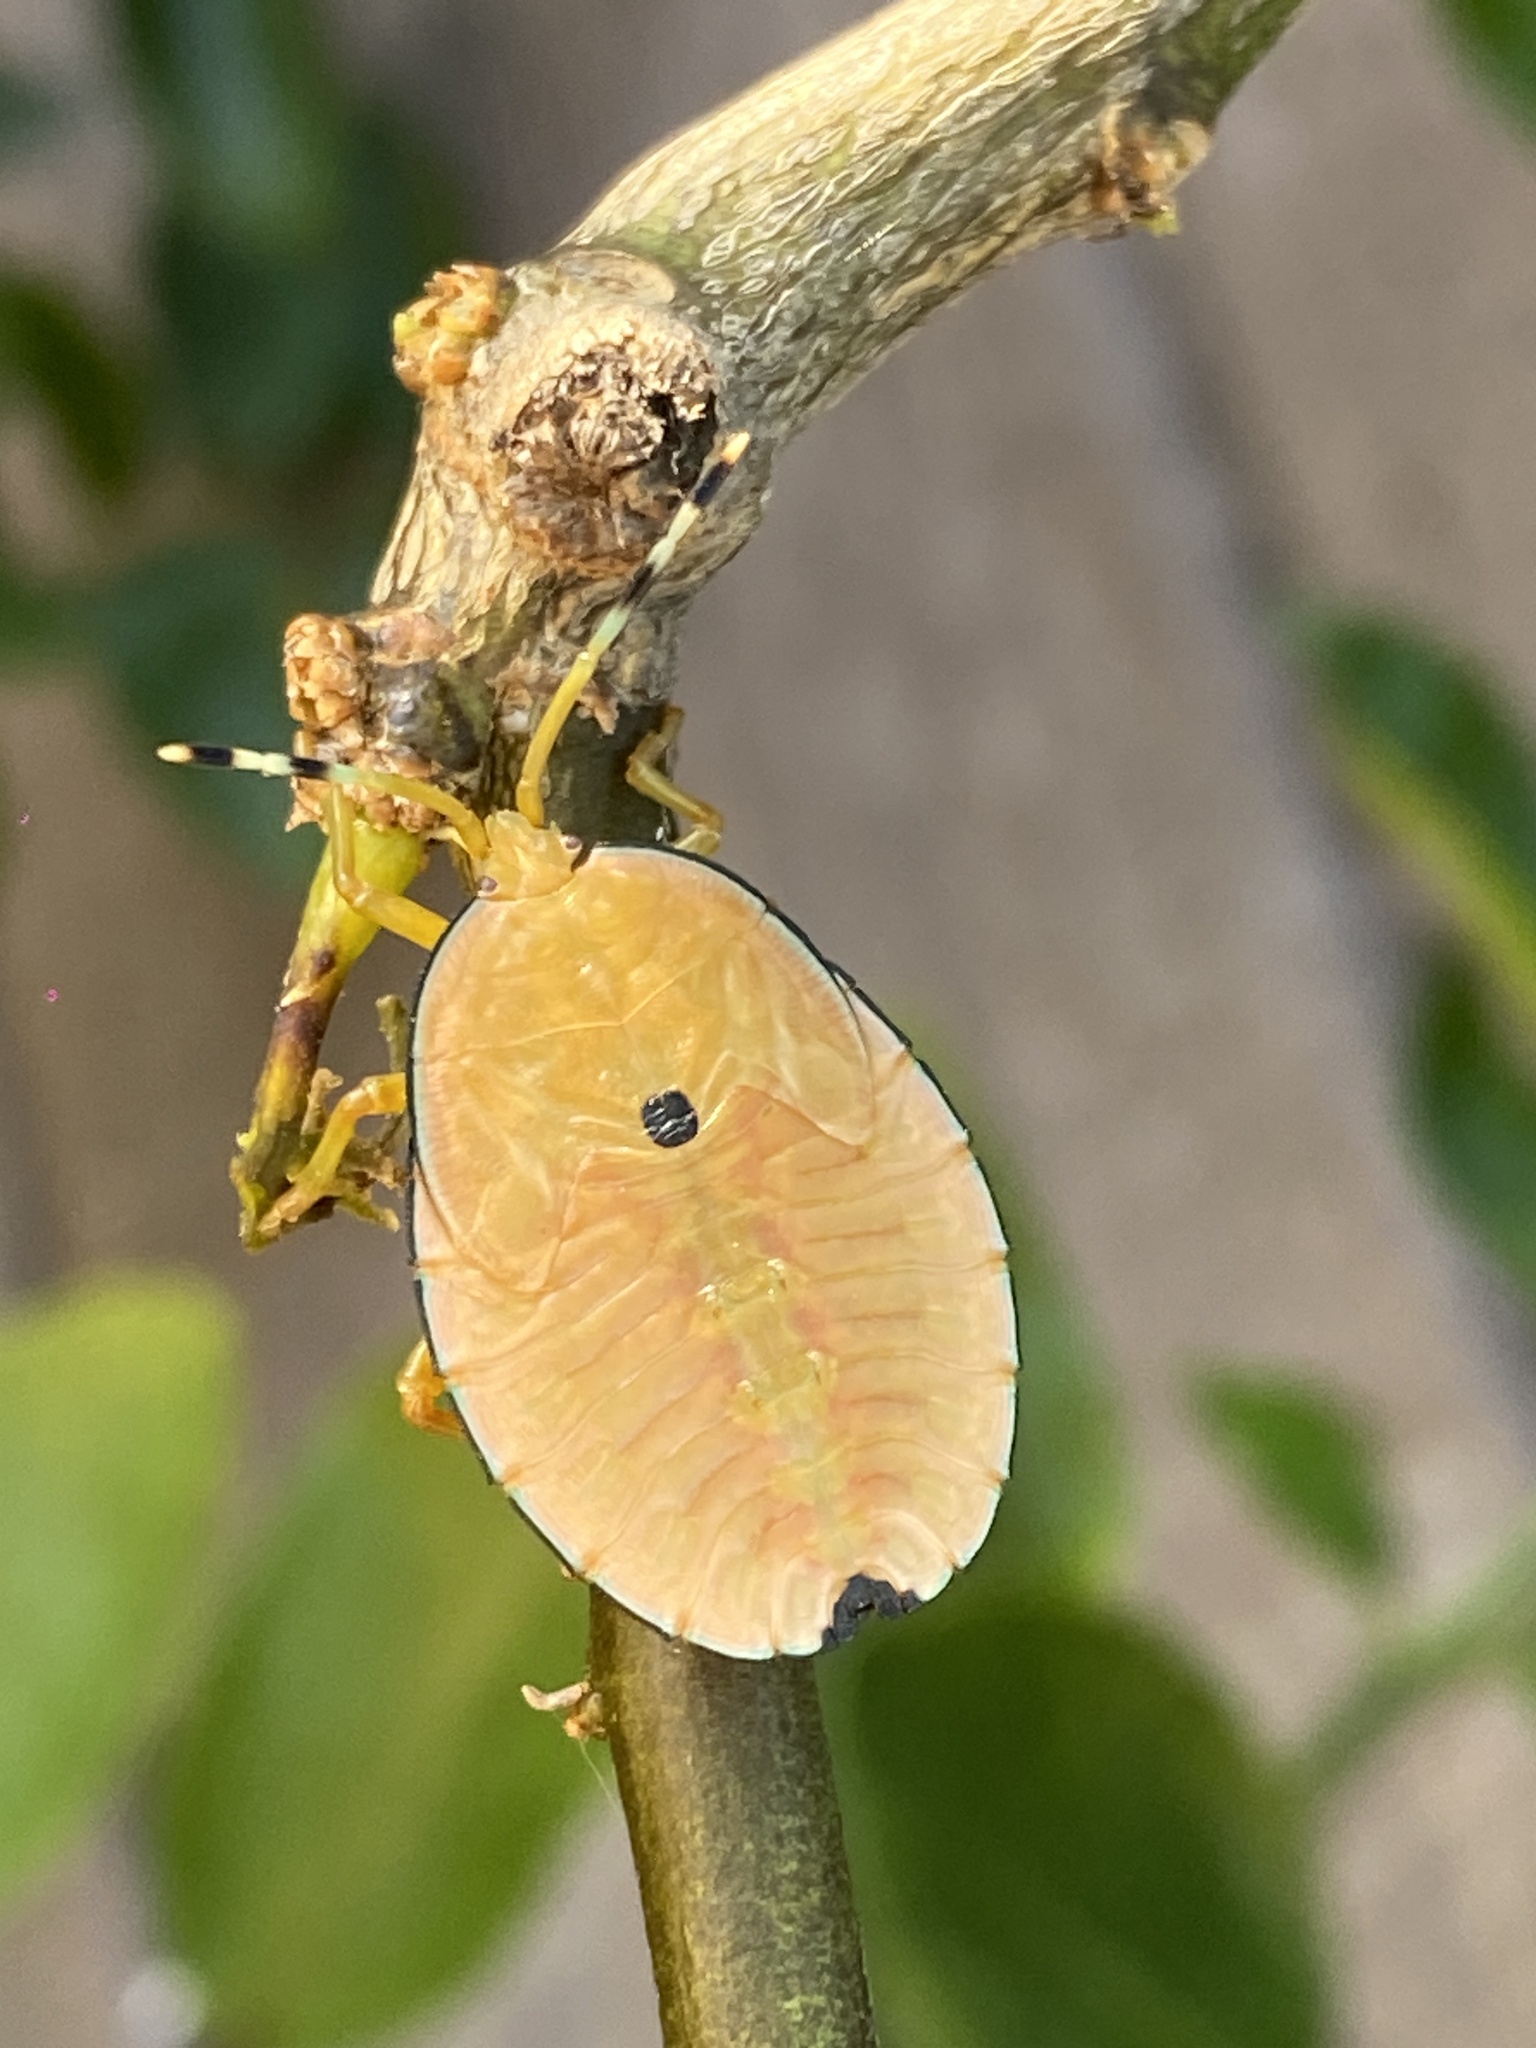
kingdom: Animalia
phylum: Arthropoda
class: Insecta
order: Hemiptera
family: Tessaratomidae
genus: Musgraveia
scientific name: Musgraveia sulciventris
